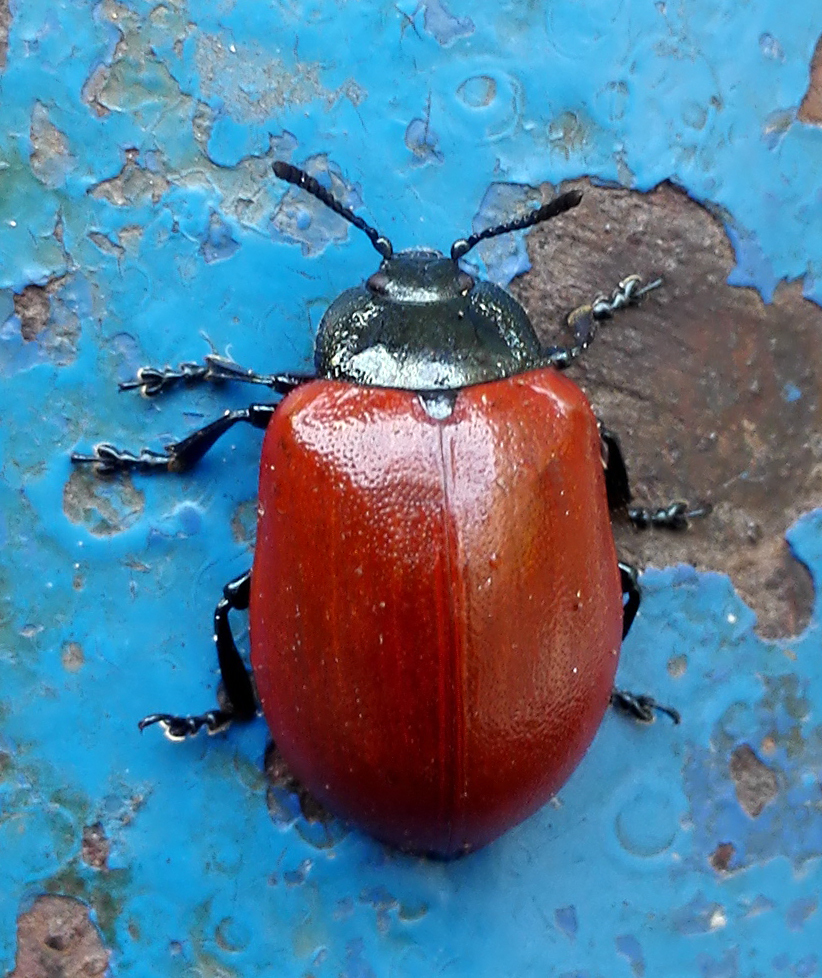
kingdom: Animalia
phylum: Arthropoda
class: Insecta
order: Coleoptera
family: Chrysomelidae
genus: Chrysomela
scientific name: Chrysomela populi
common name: Red poplar leaf beetle
